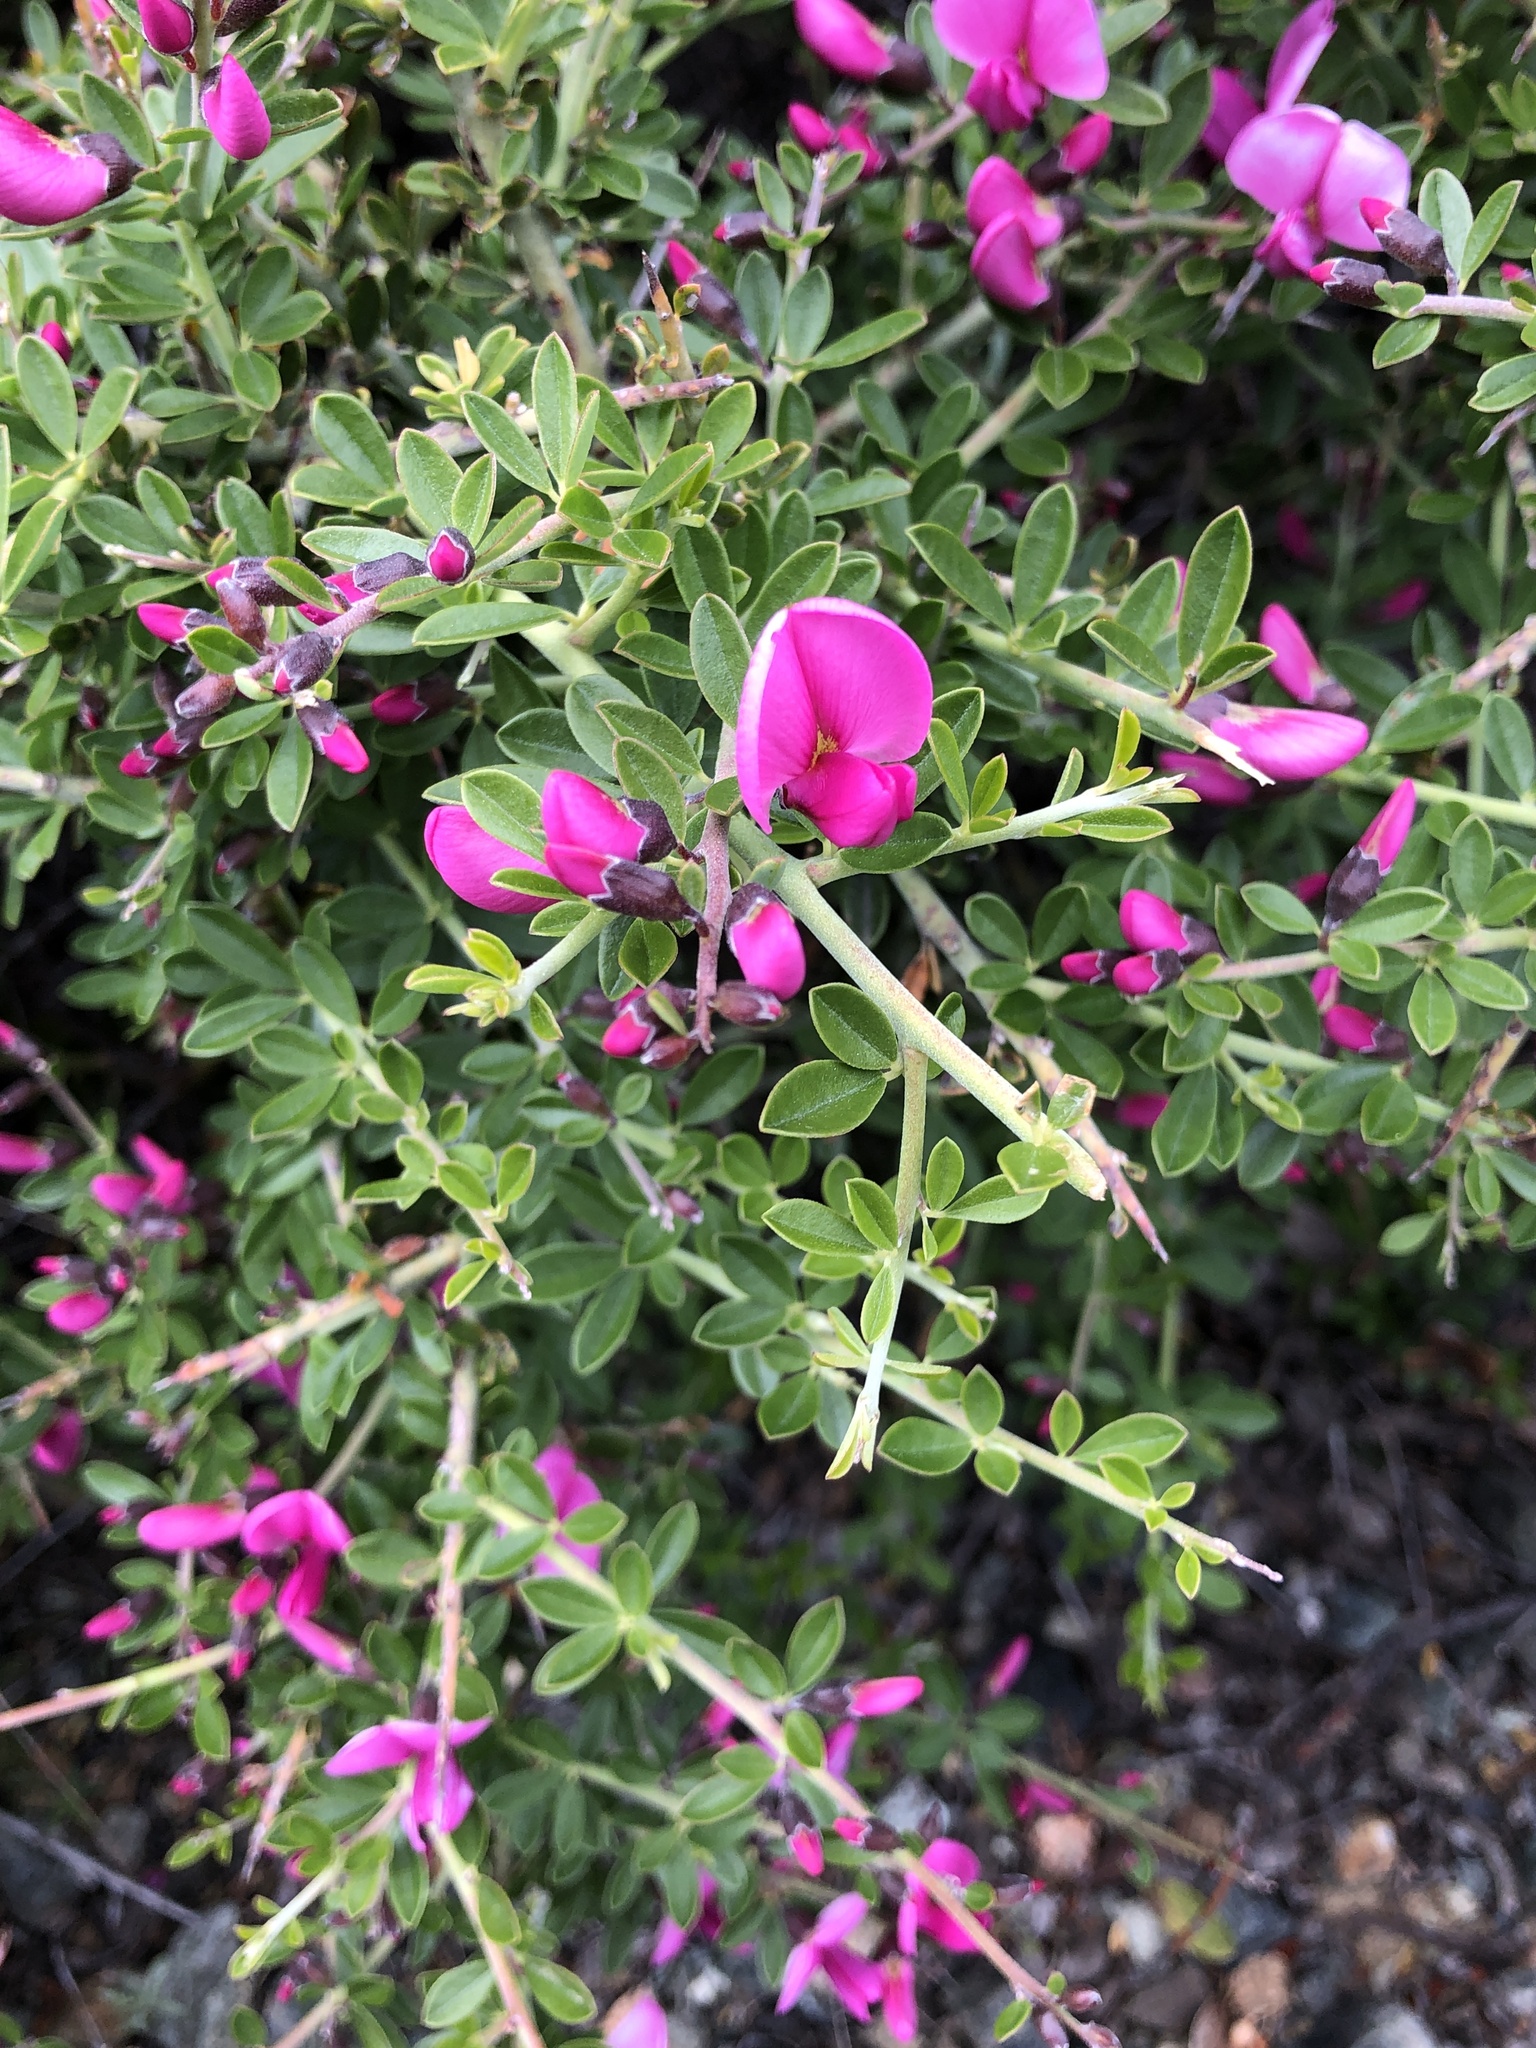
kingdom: Plantae
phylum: Tracheophyta
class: Magnoliopsida
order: Fabales
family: Fabaceae
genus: Pickeringia
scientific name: Pickeringia montana
